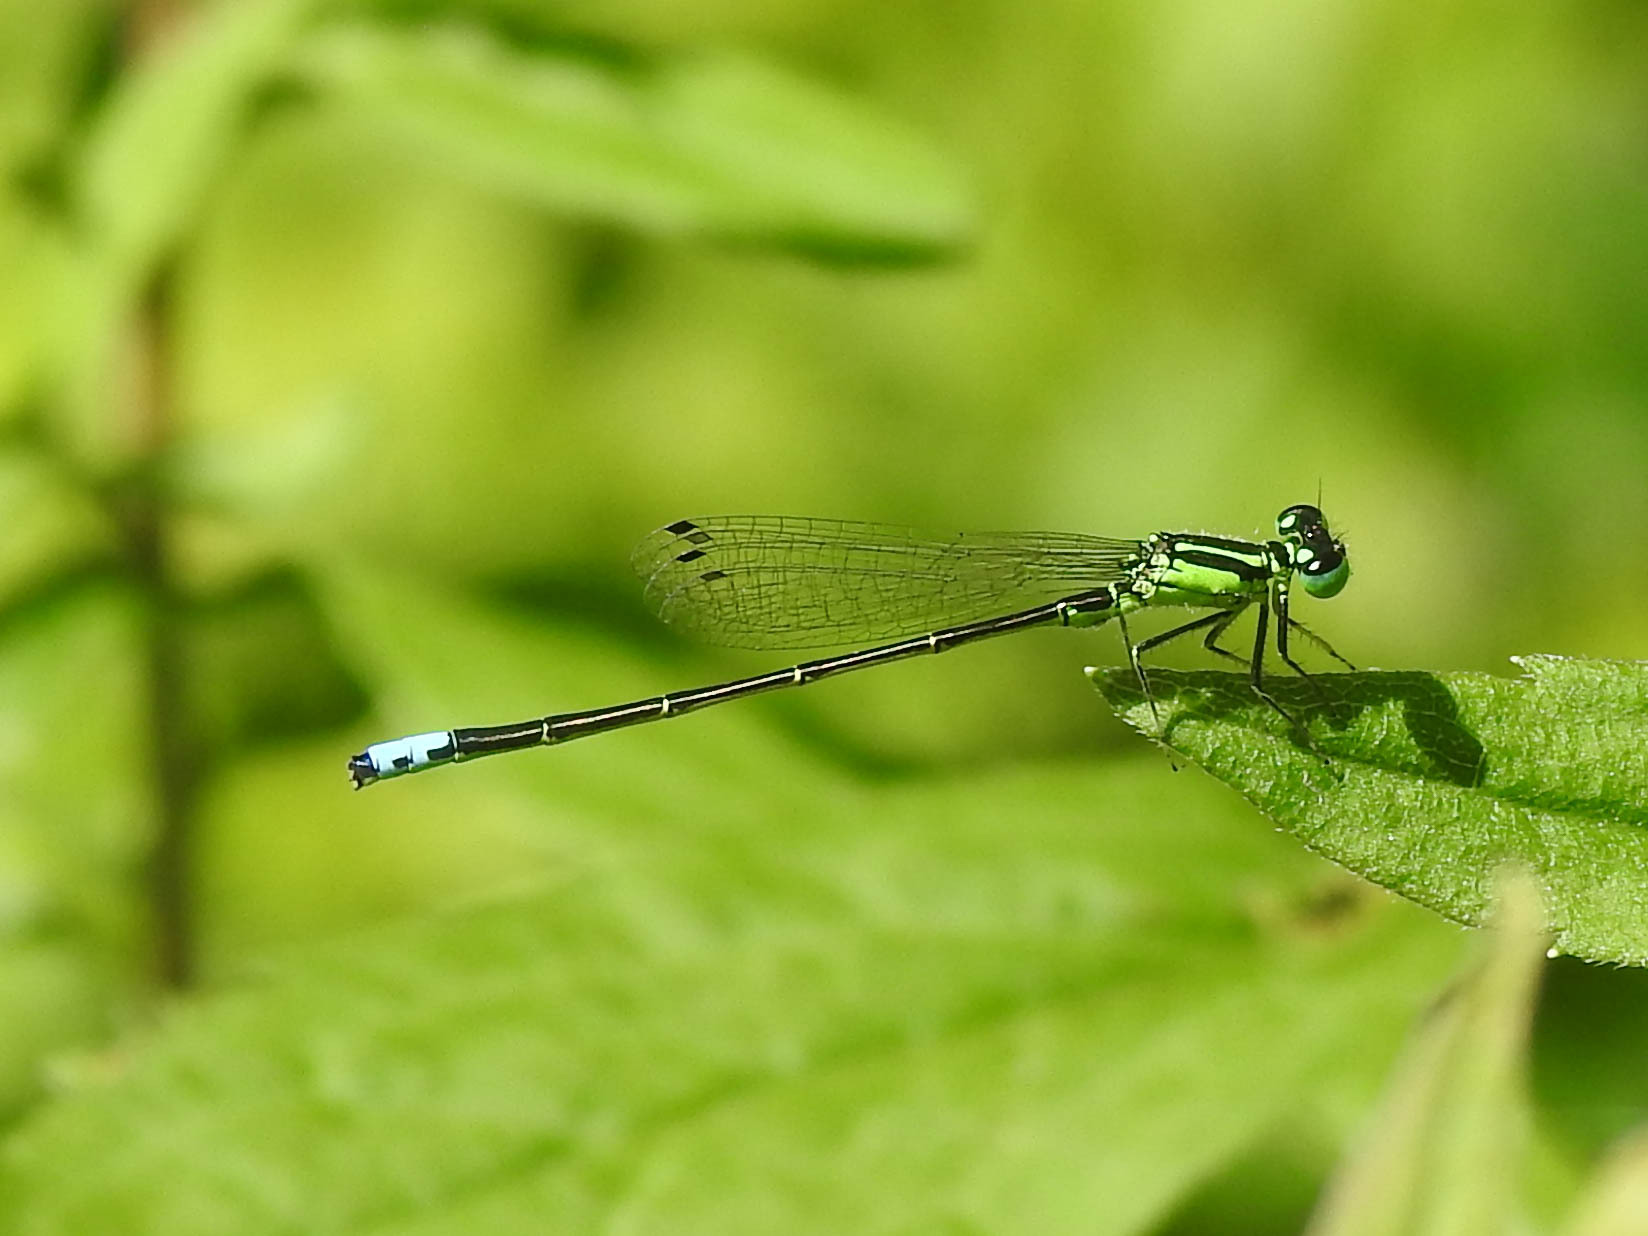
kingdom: Animalia
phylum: Arthropoda
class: Insecta
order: Odonata
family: Coenagrionidae
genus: Ischnura
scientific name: Ischnura verticalis
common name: Eastern forktail
